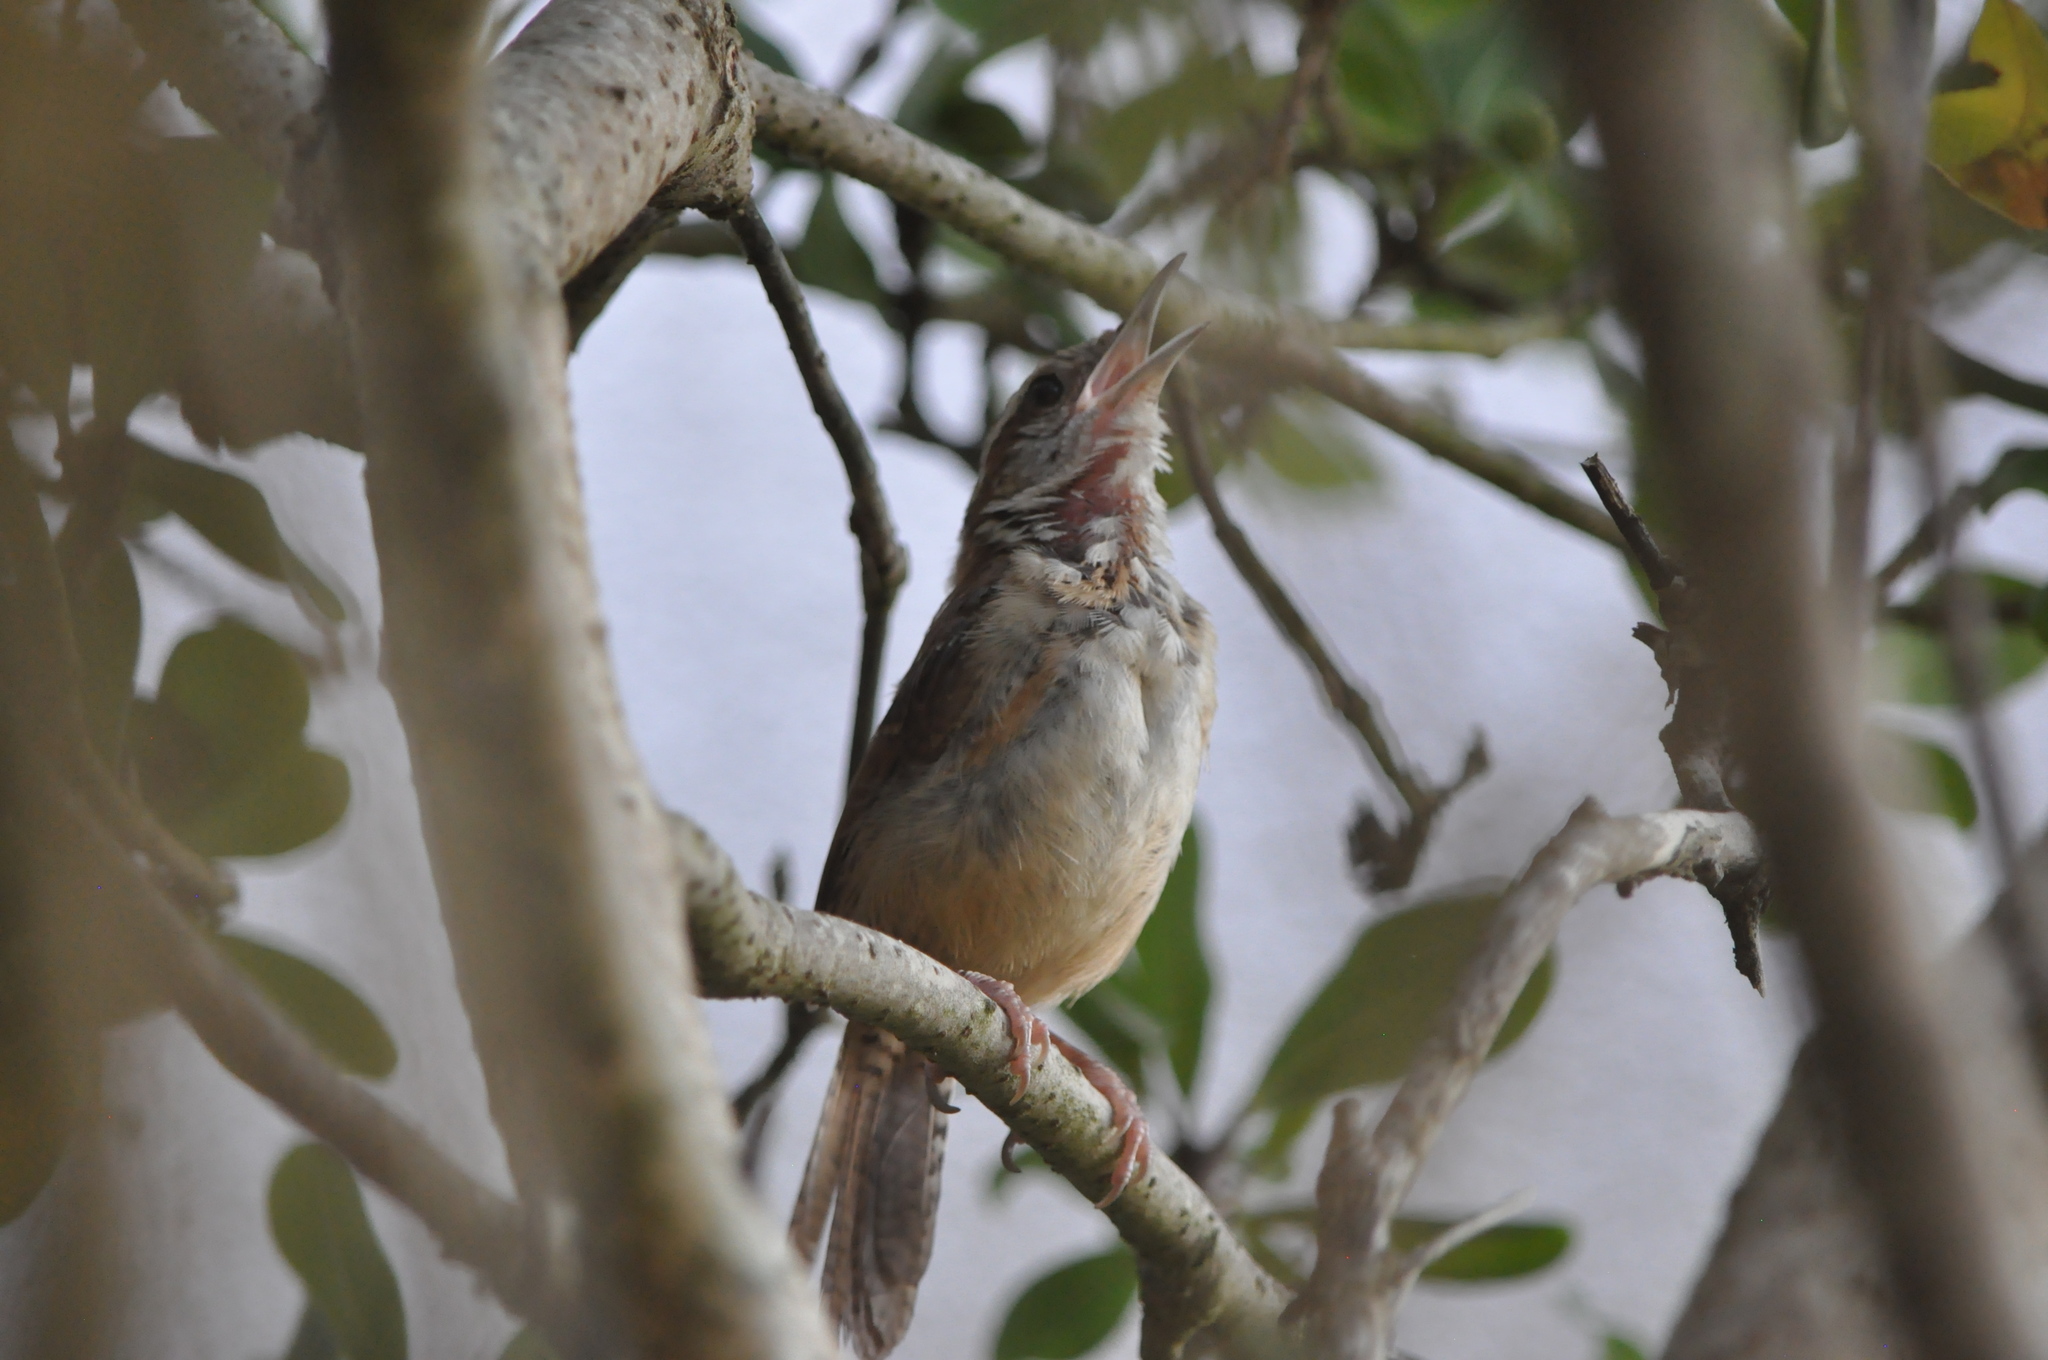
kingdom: Animalia
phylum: Chordata
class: Aves
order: Passeriformes
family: Troglodytidae
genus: Thryothorus
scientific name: Thryothorus ludovicianus
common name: Carolina wren
